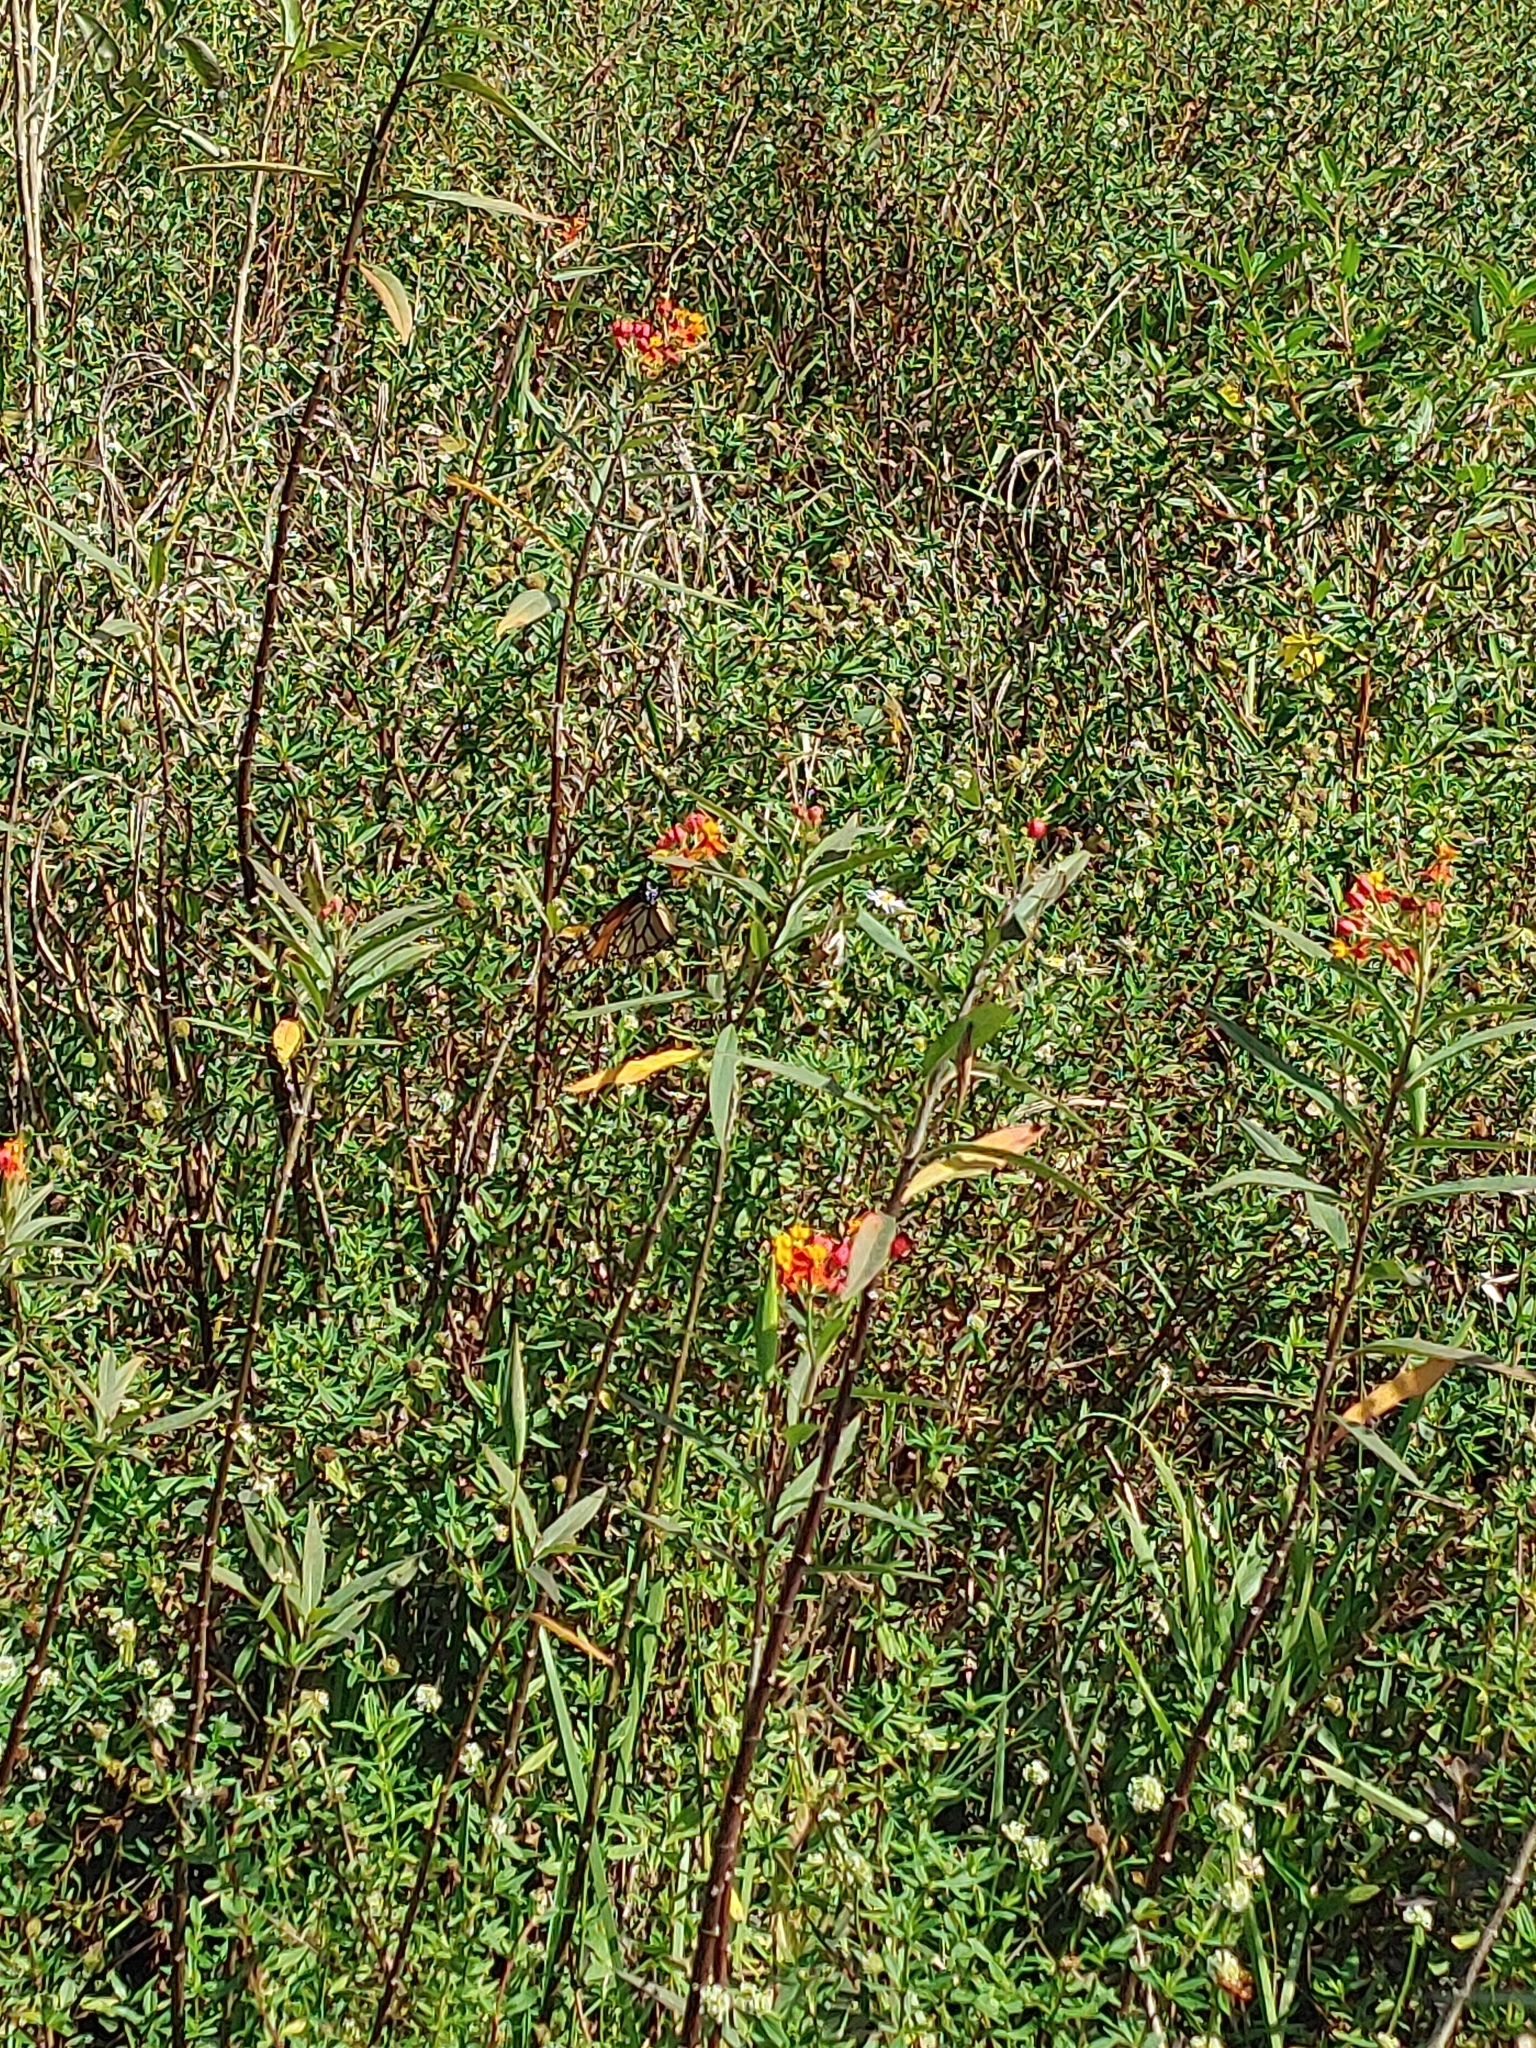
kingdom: Plantae
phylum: Tracheophyta
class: Magnoliopsida
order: Gentianales
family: Apocynaceae
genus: Asclepias
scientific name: Asclepias curassavica
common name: Bloodflower
